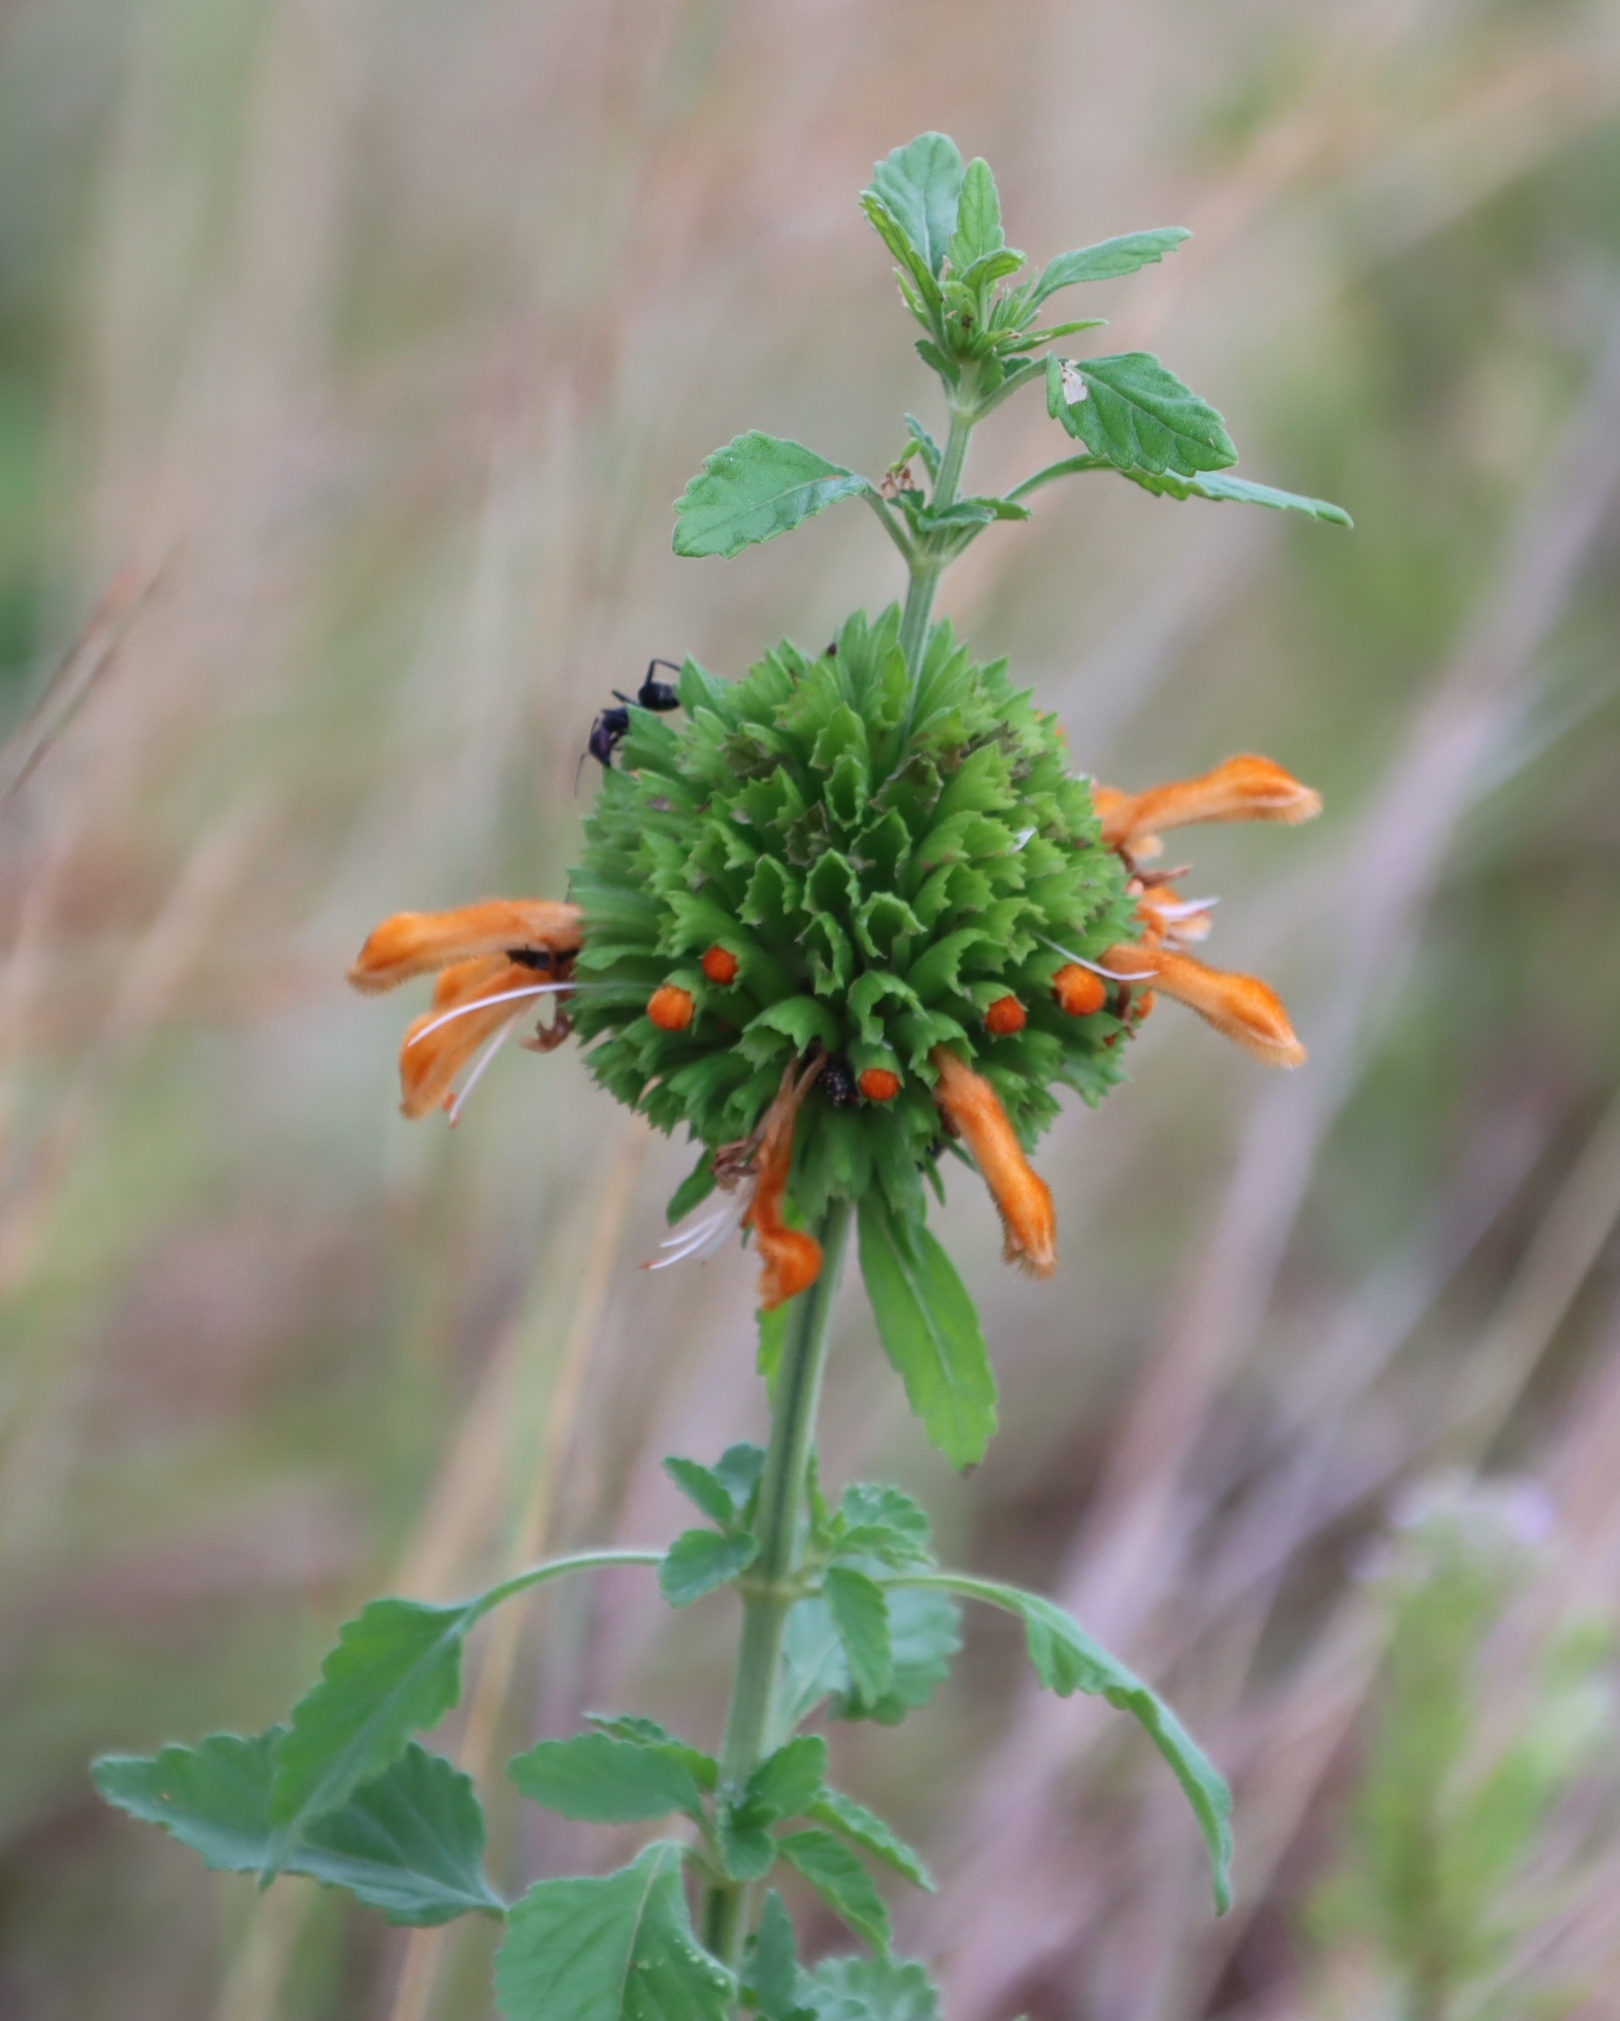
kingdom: Plantae
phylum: Tracheophyta
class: Magnoliopsida
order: Lamiales
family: Lamiaceae
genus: Leonotis
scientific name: Leonotis ocymifolia
